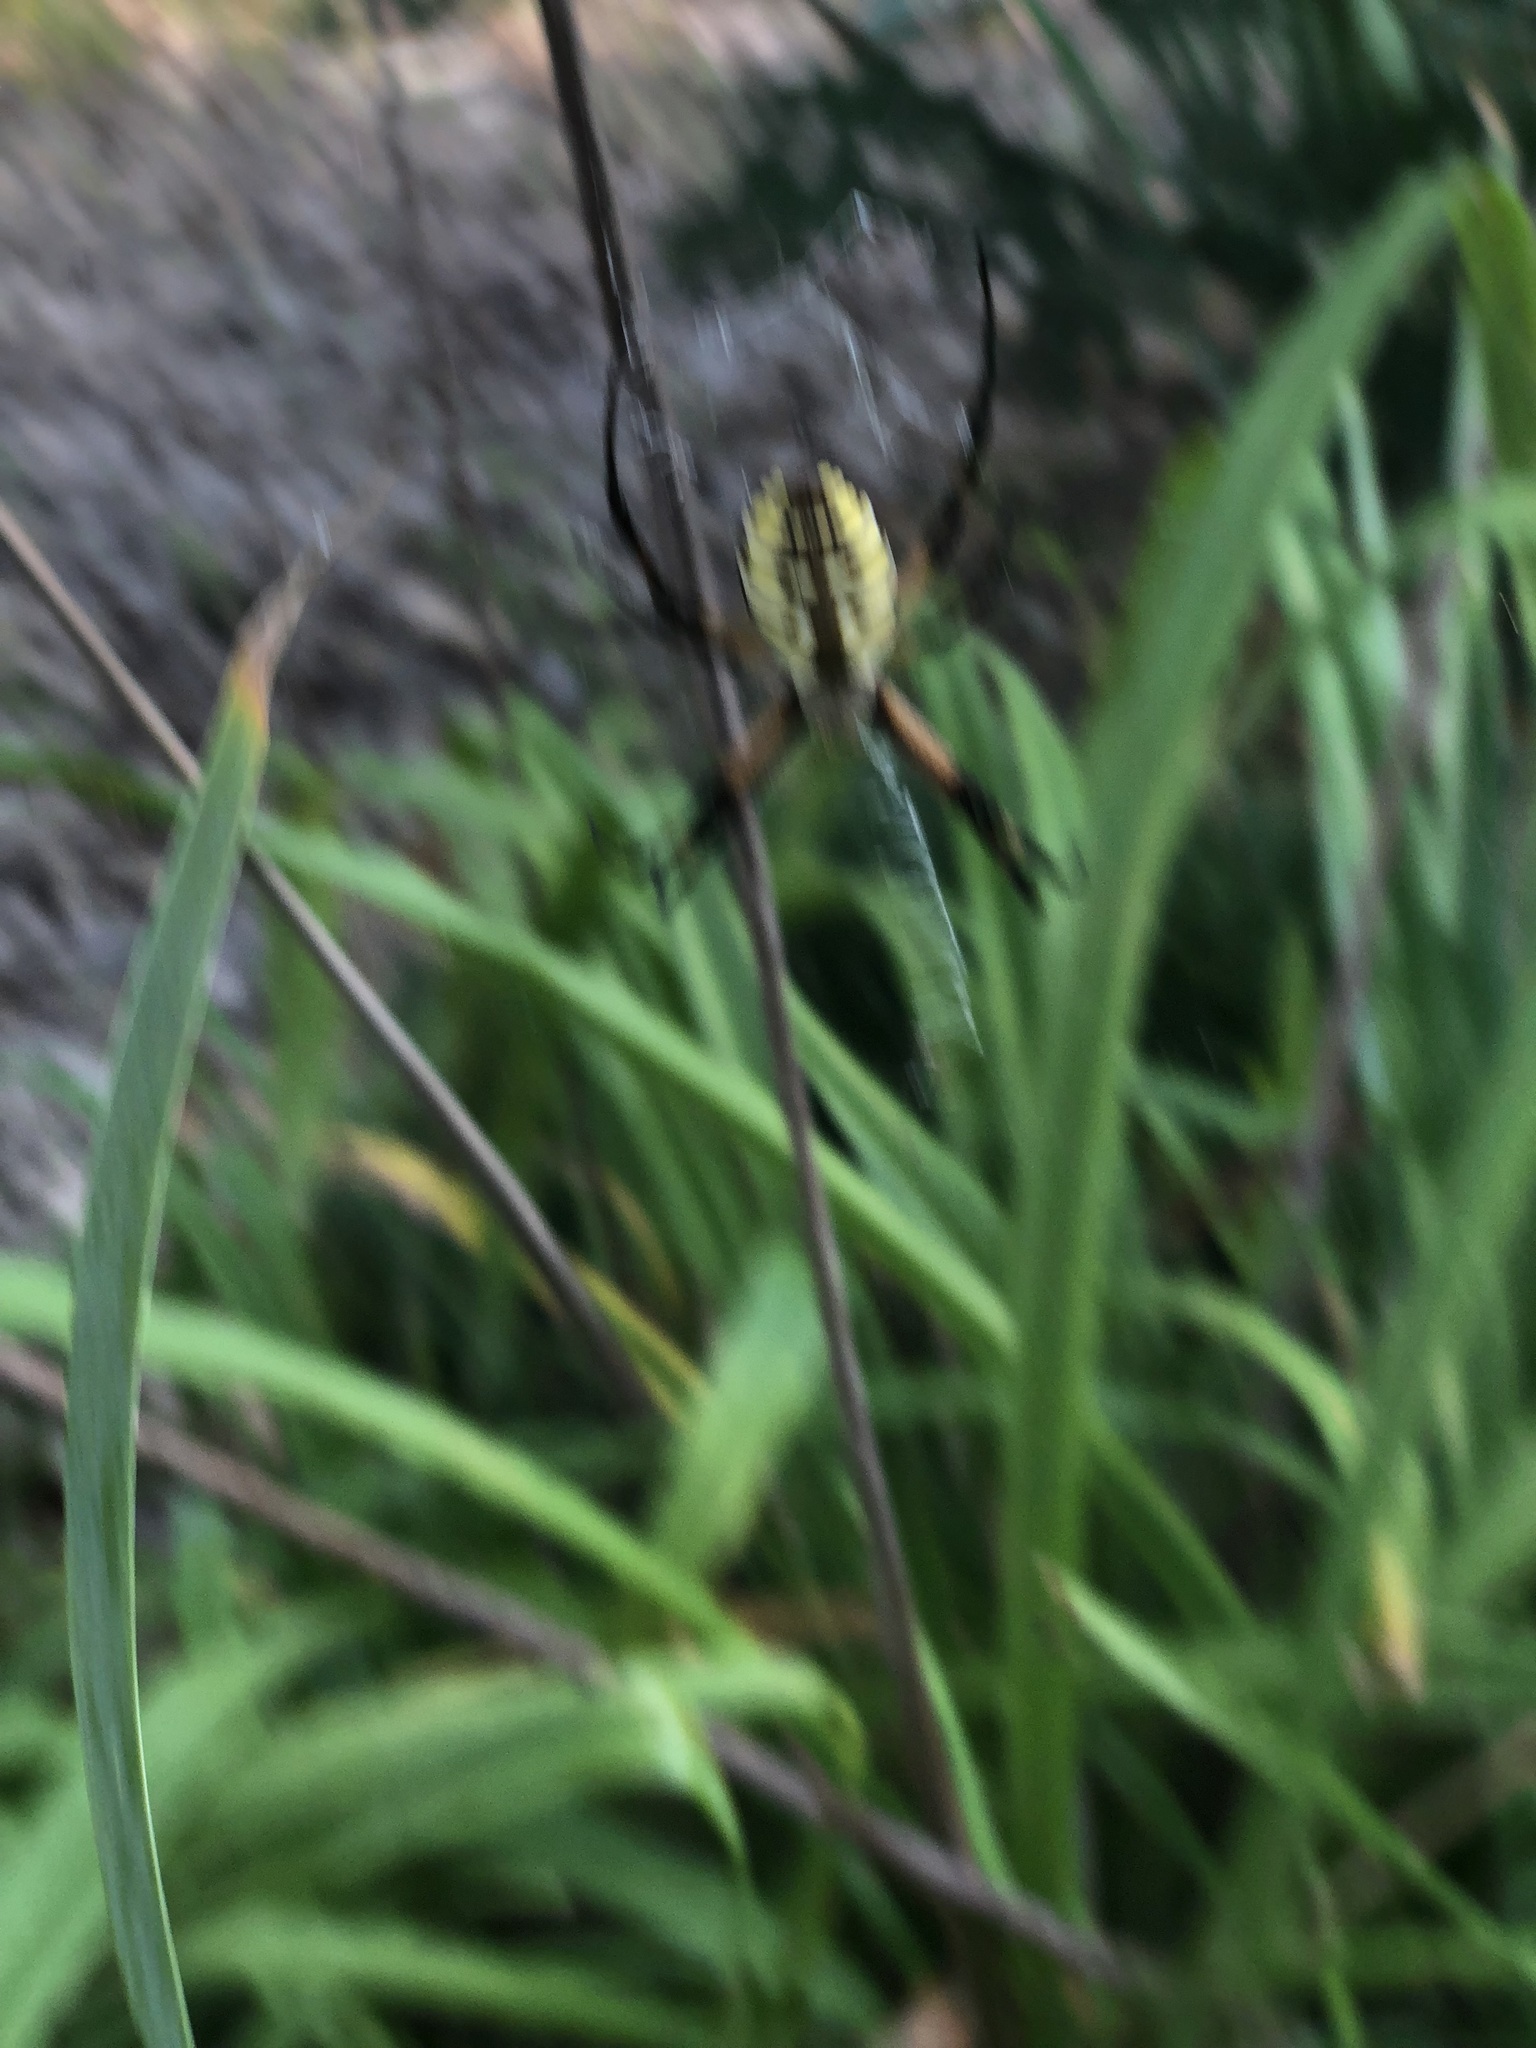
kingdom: Animalia
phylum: Arthropoda
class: Arachnida
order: Araneae
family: Araneidae
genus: Argiope
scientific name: Argiope aurantia
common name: Orb weavers
